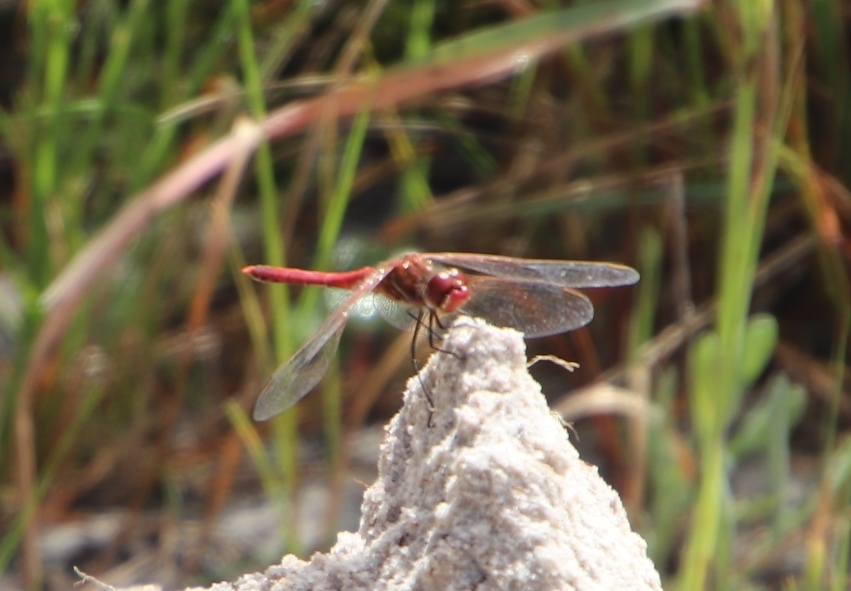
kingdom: Animalia
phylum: Arthropoda
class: Insecta
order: Odonata
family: Libellulidae
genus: Sympetrum
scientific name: Sympetrum fonscolombii
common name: Red-veined darter
